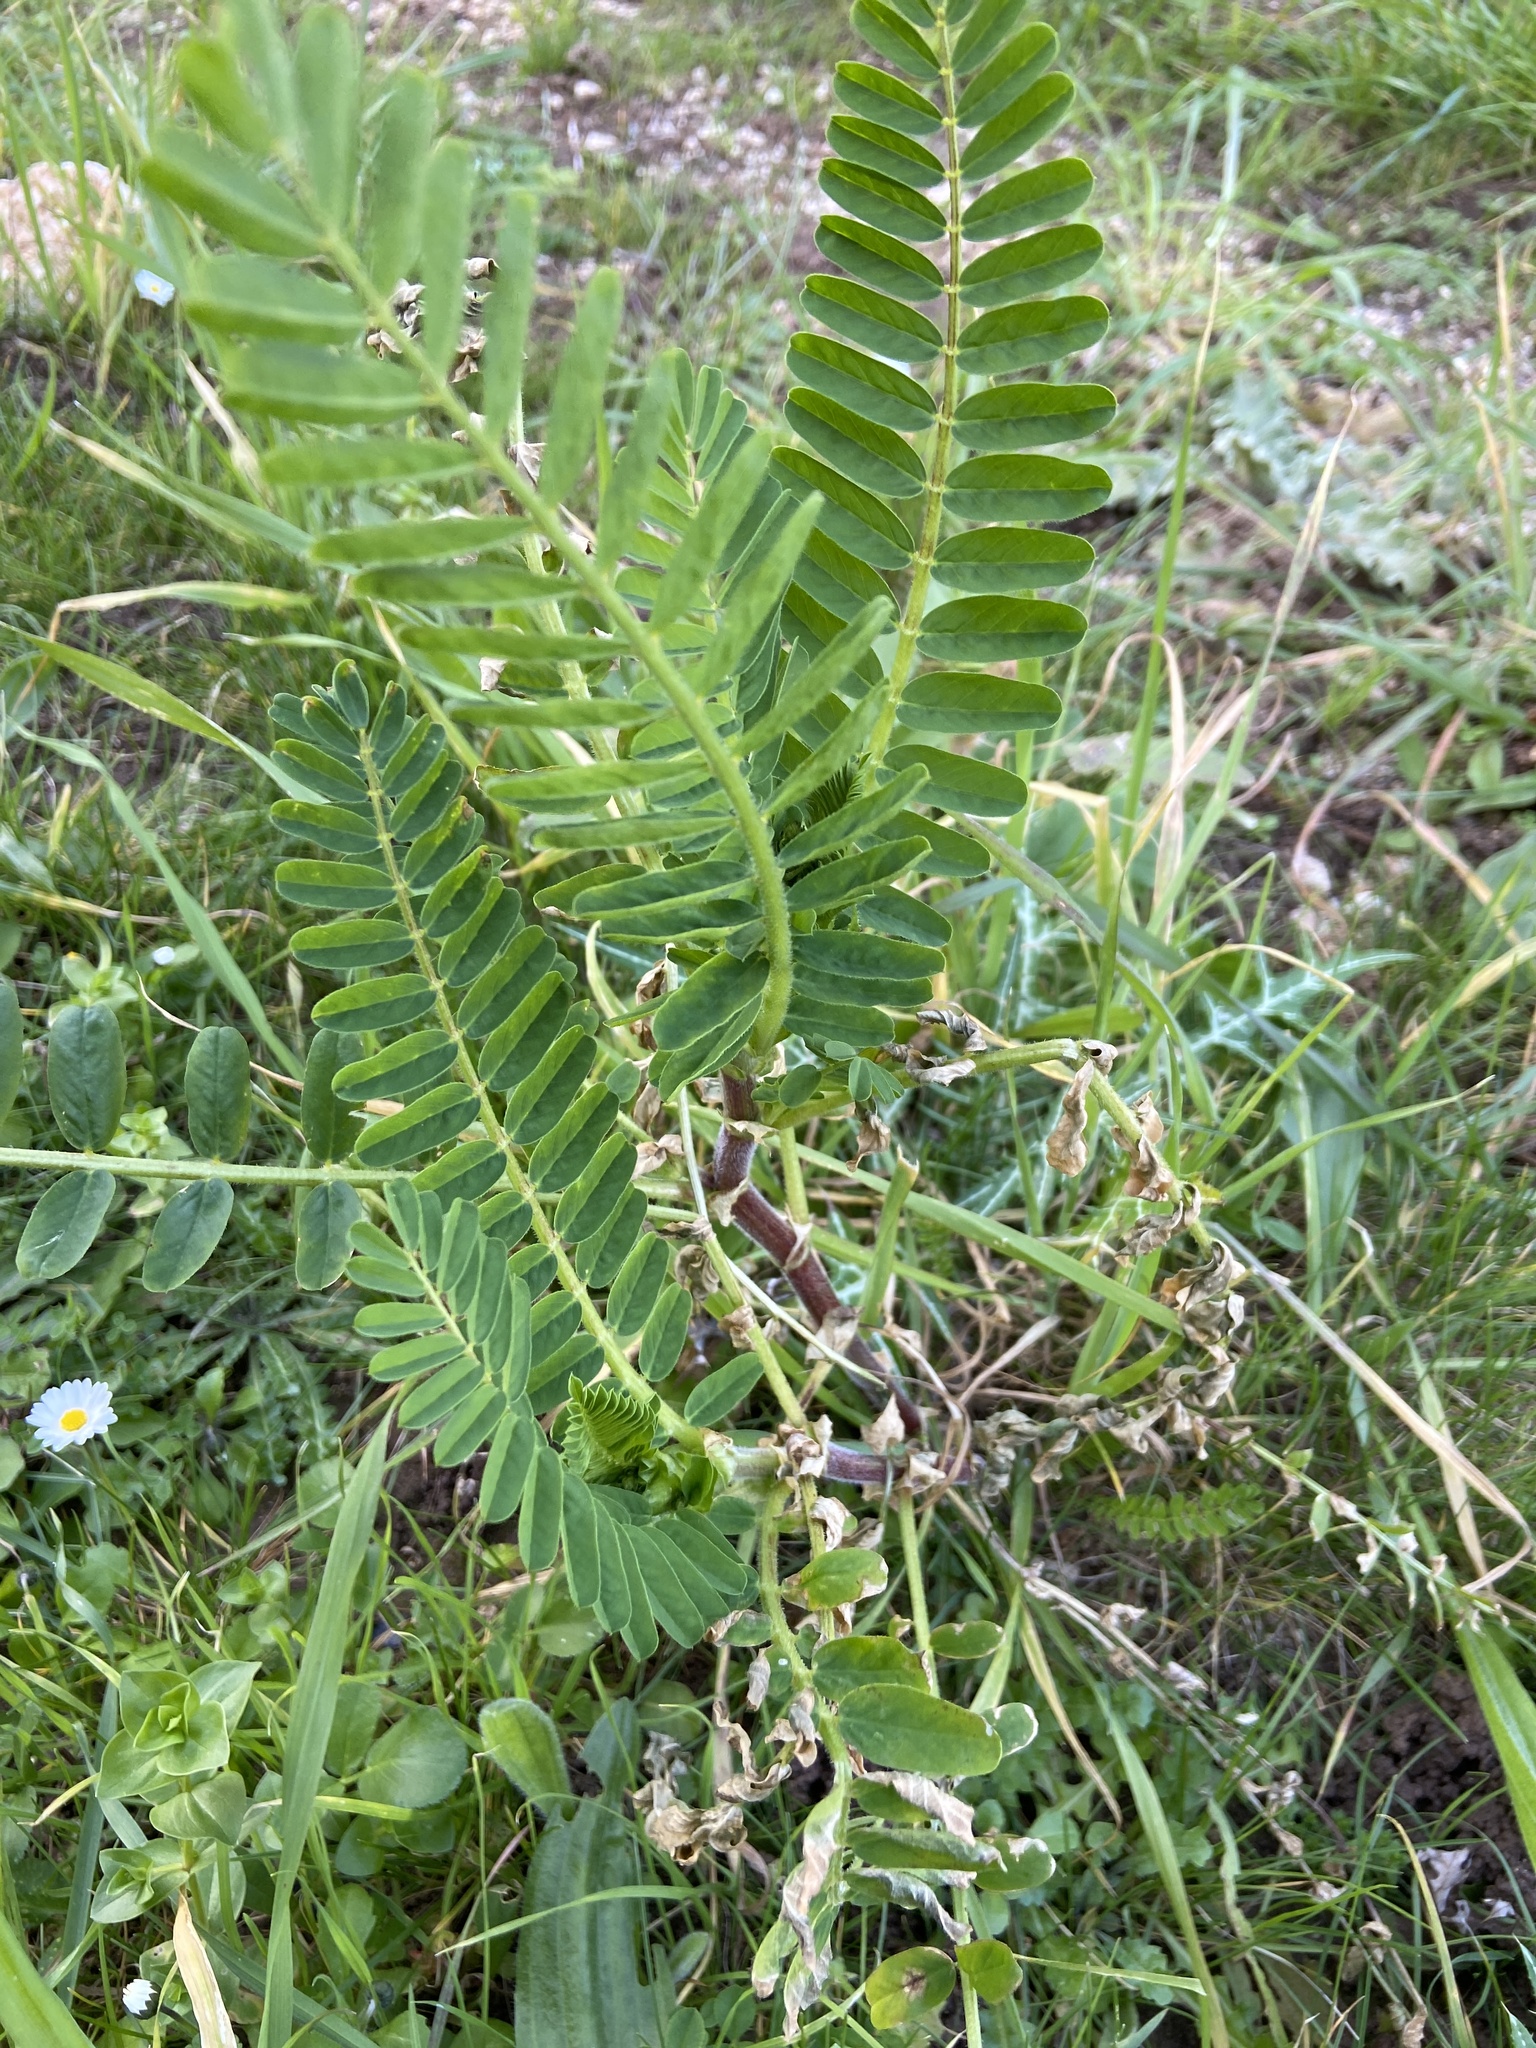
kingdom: Plantae
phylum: Tracheophyta
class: Magnoliopsida
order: Fabales
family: Fabaceae
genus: Astragalus
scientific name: Astragalus boeticus
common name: Milk-vetch
